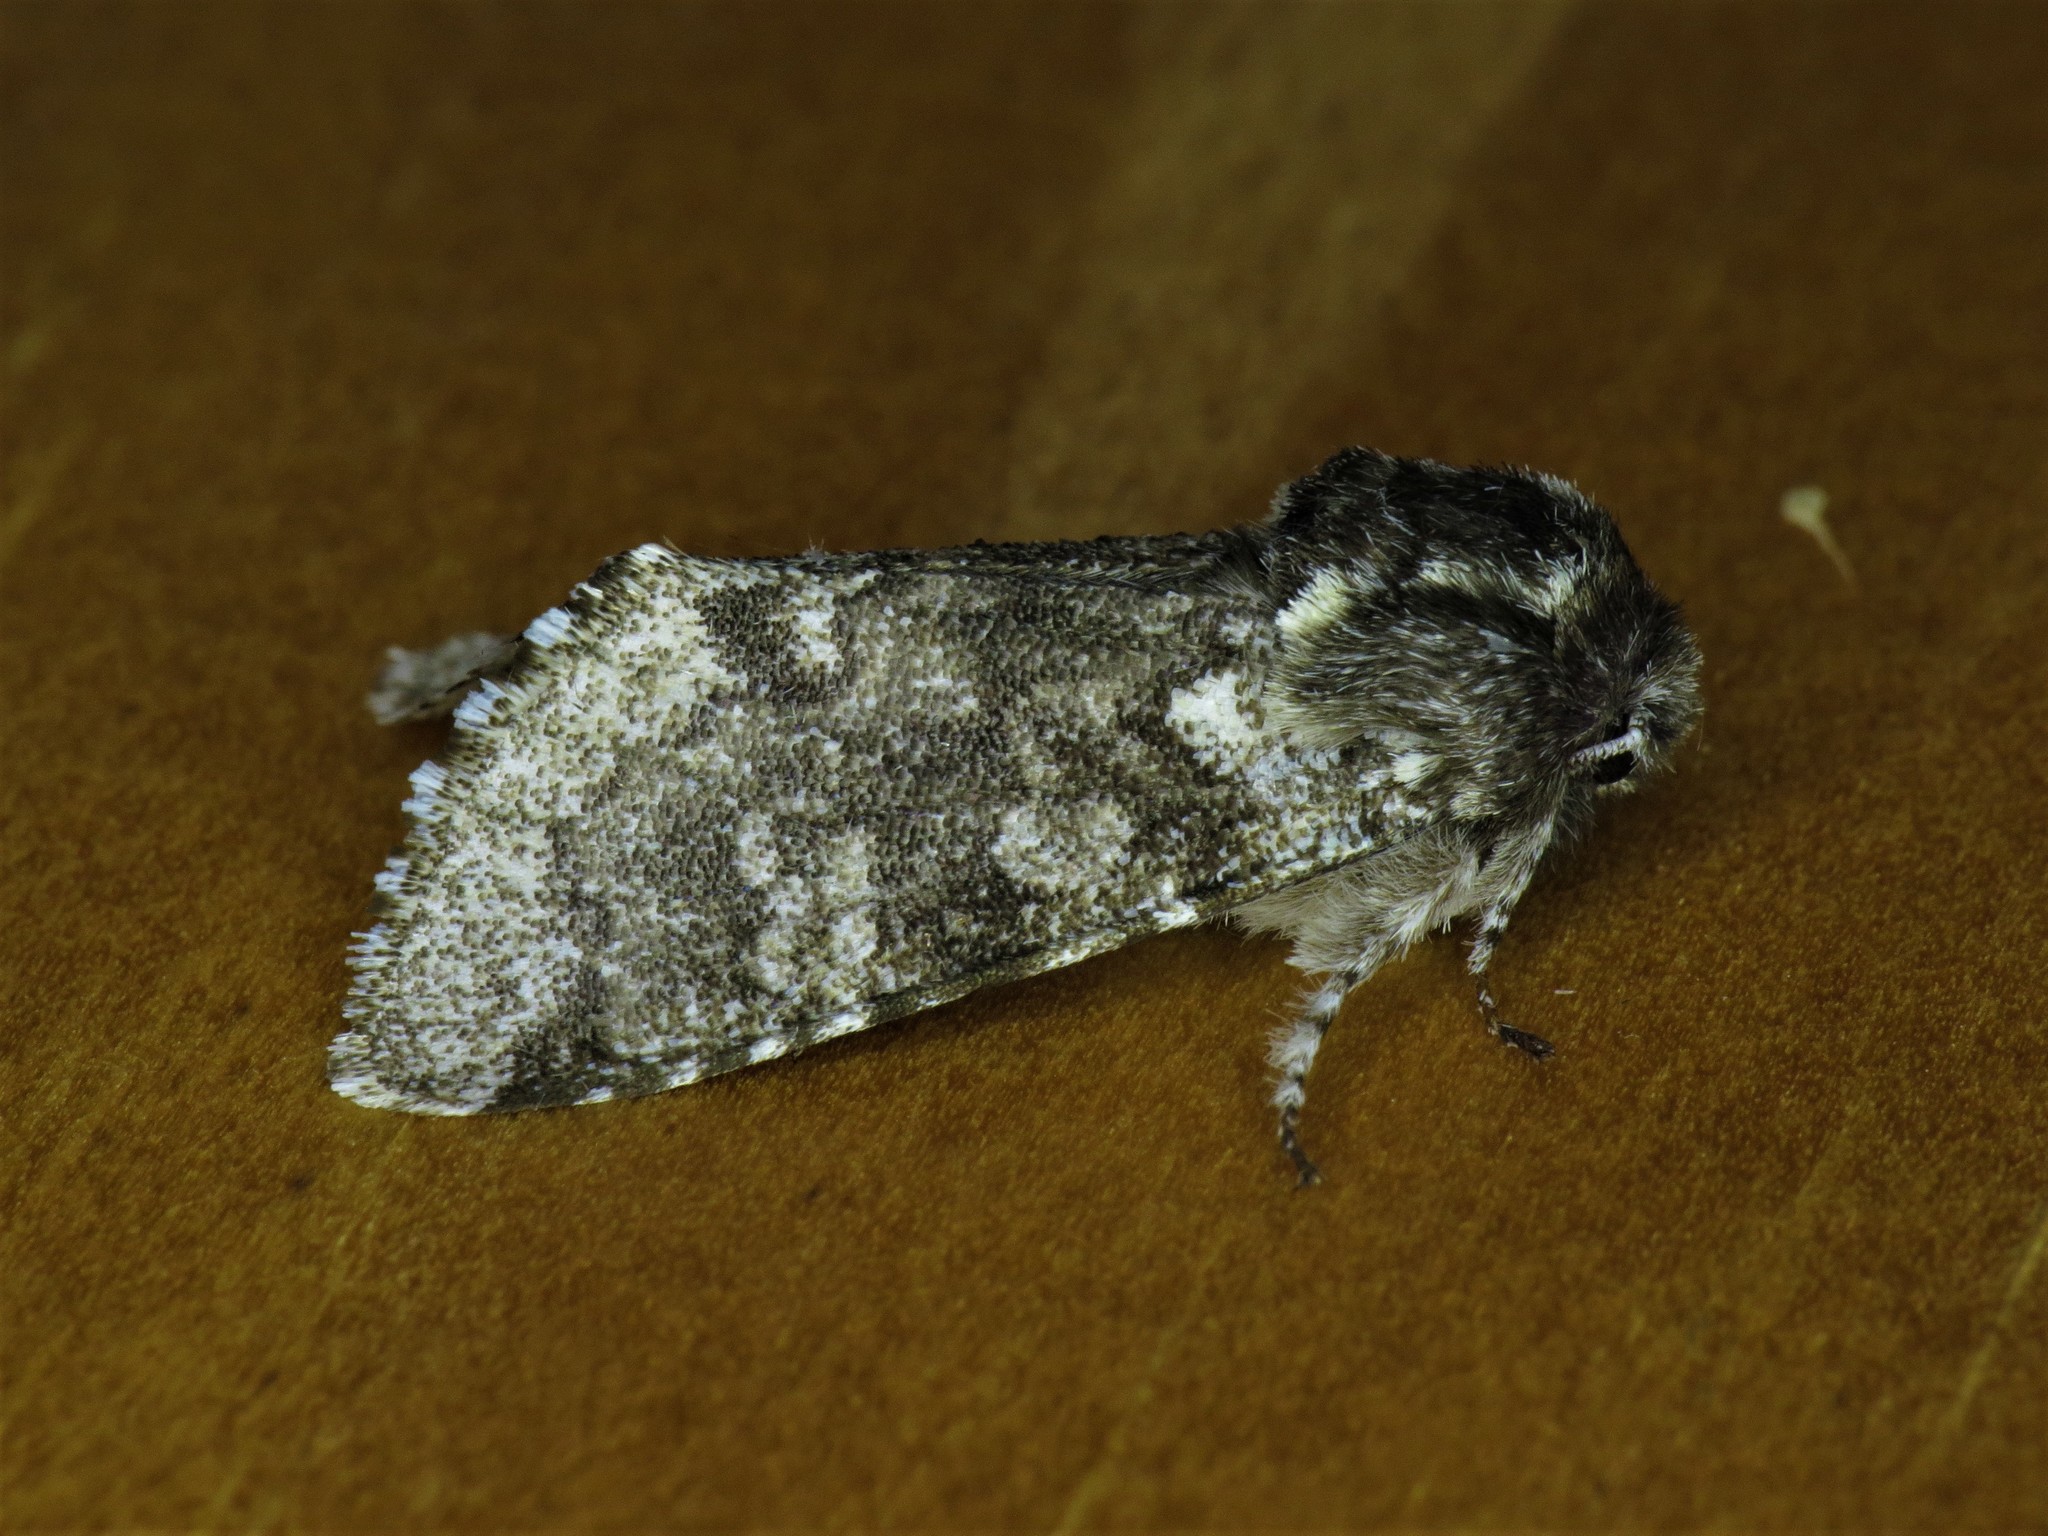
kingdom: Animalia
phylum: Arthropoda
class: Insecta
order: Lepidoptera
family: Noctuidae
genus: Feralia
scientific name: Feralia major
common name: Major sallow
